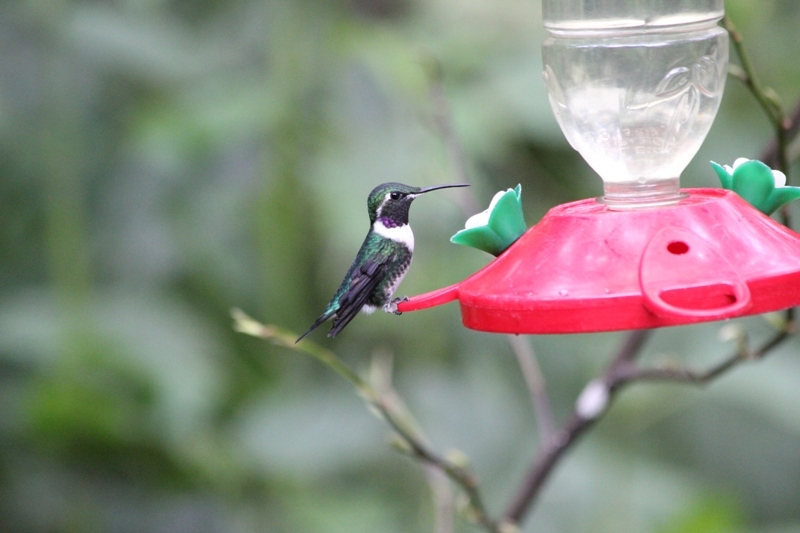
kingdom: Animalia
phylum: Chordata
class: Aves
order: Apodiformes
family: Trochilidae
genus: Chaetocercus
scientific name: Chaetocercus mulsant
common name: White-bellied woodstar
